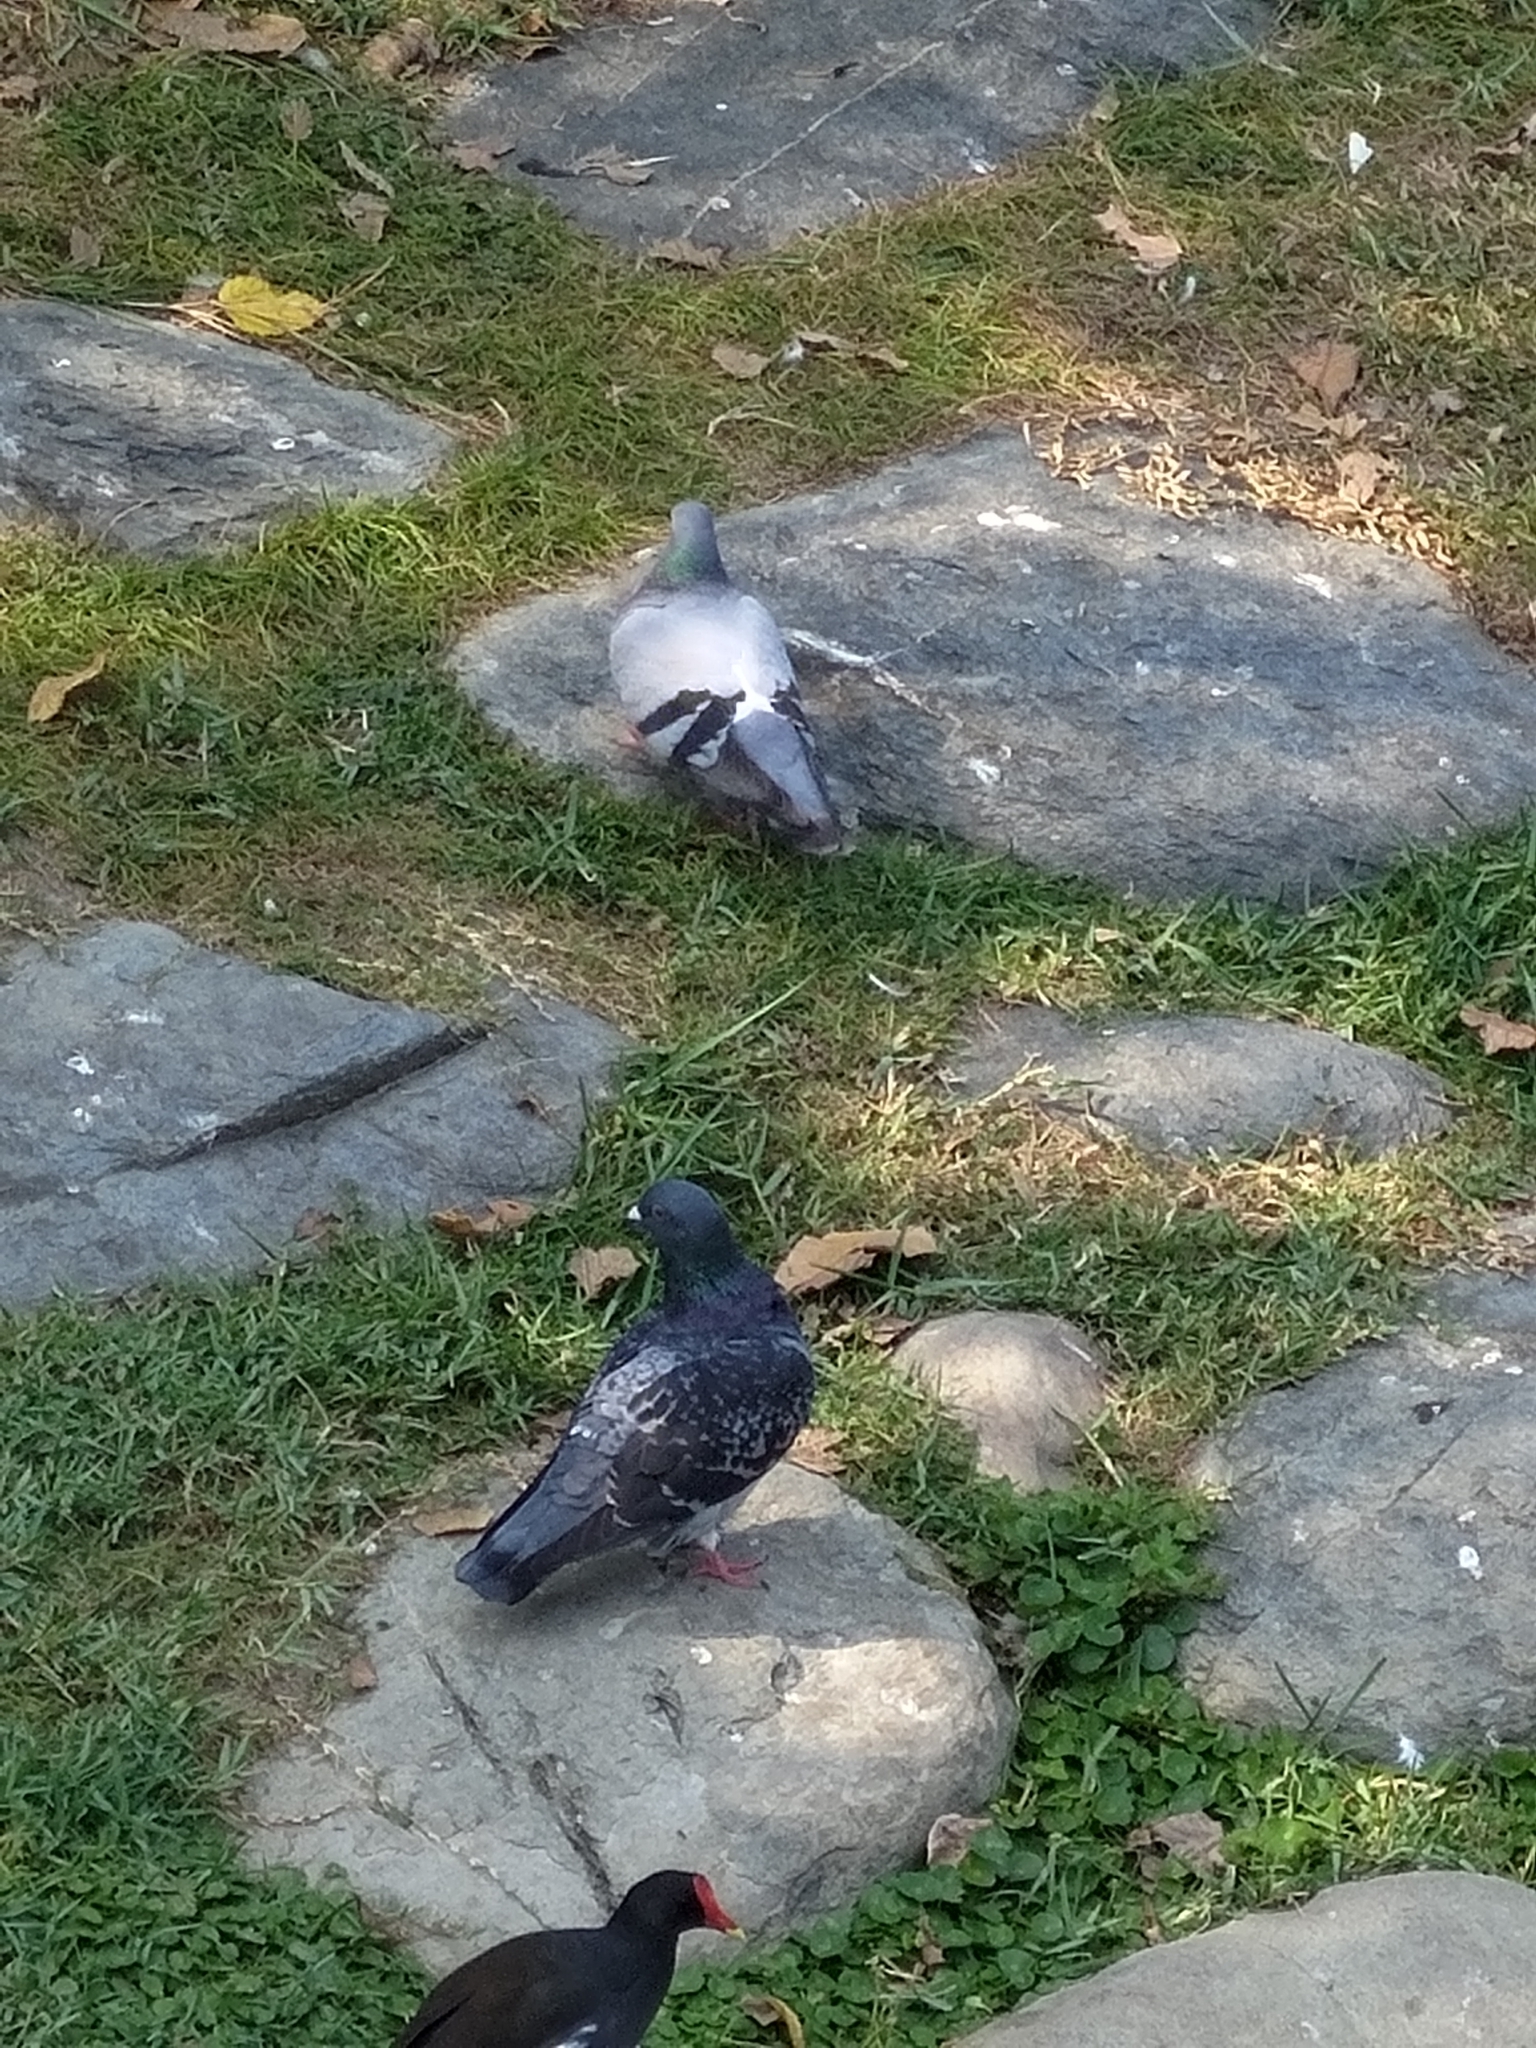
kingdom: Animalia
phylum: Chordata
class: Aves
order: Columbiformes
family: Columbidae
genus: Columba
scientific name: Columba livia
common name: Rock pigeon
